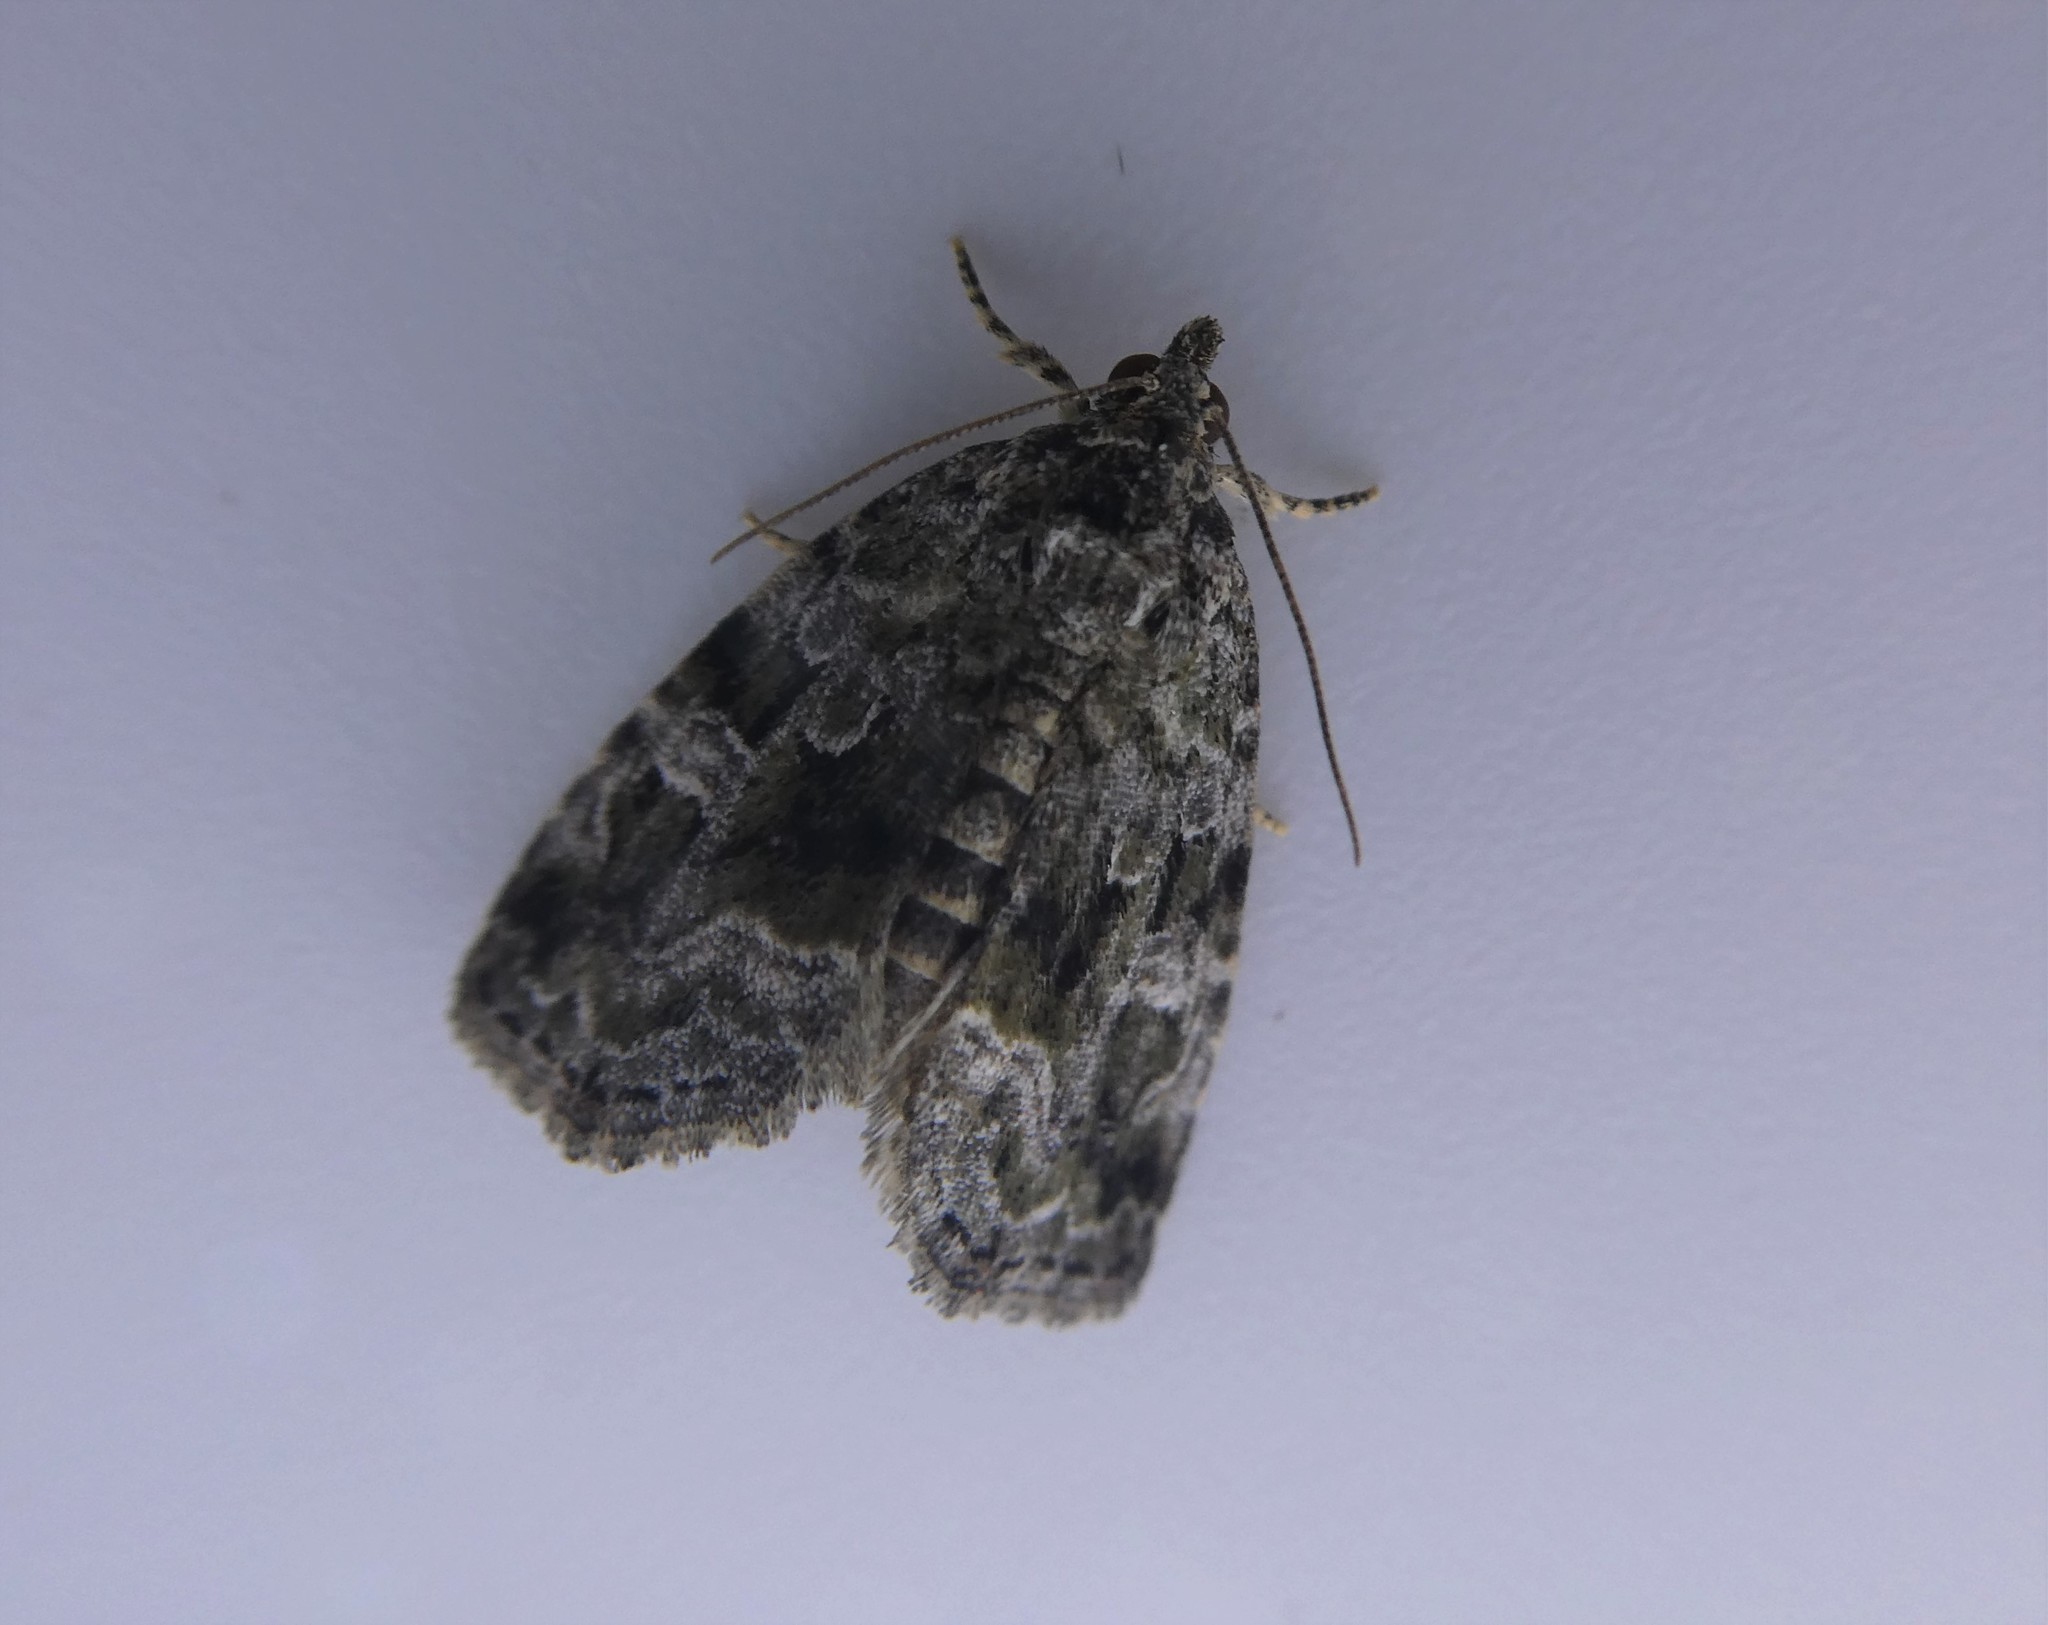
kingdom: Animalia
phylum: Arthropoda
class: Insecta
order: Lepidoptera
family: Noctuidae
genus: Protodeltote
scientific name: Protodeltote muscosula
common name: Large mossy glyph
